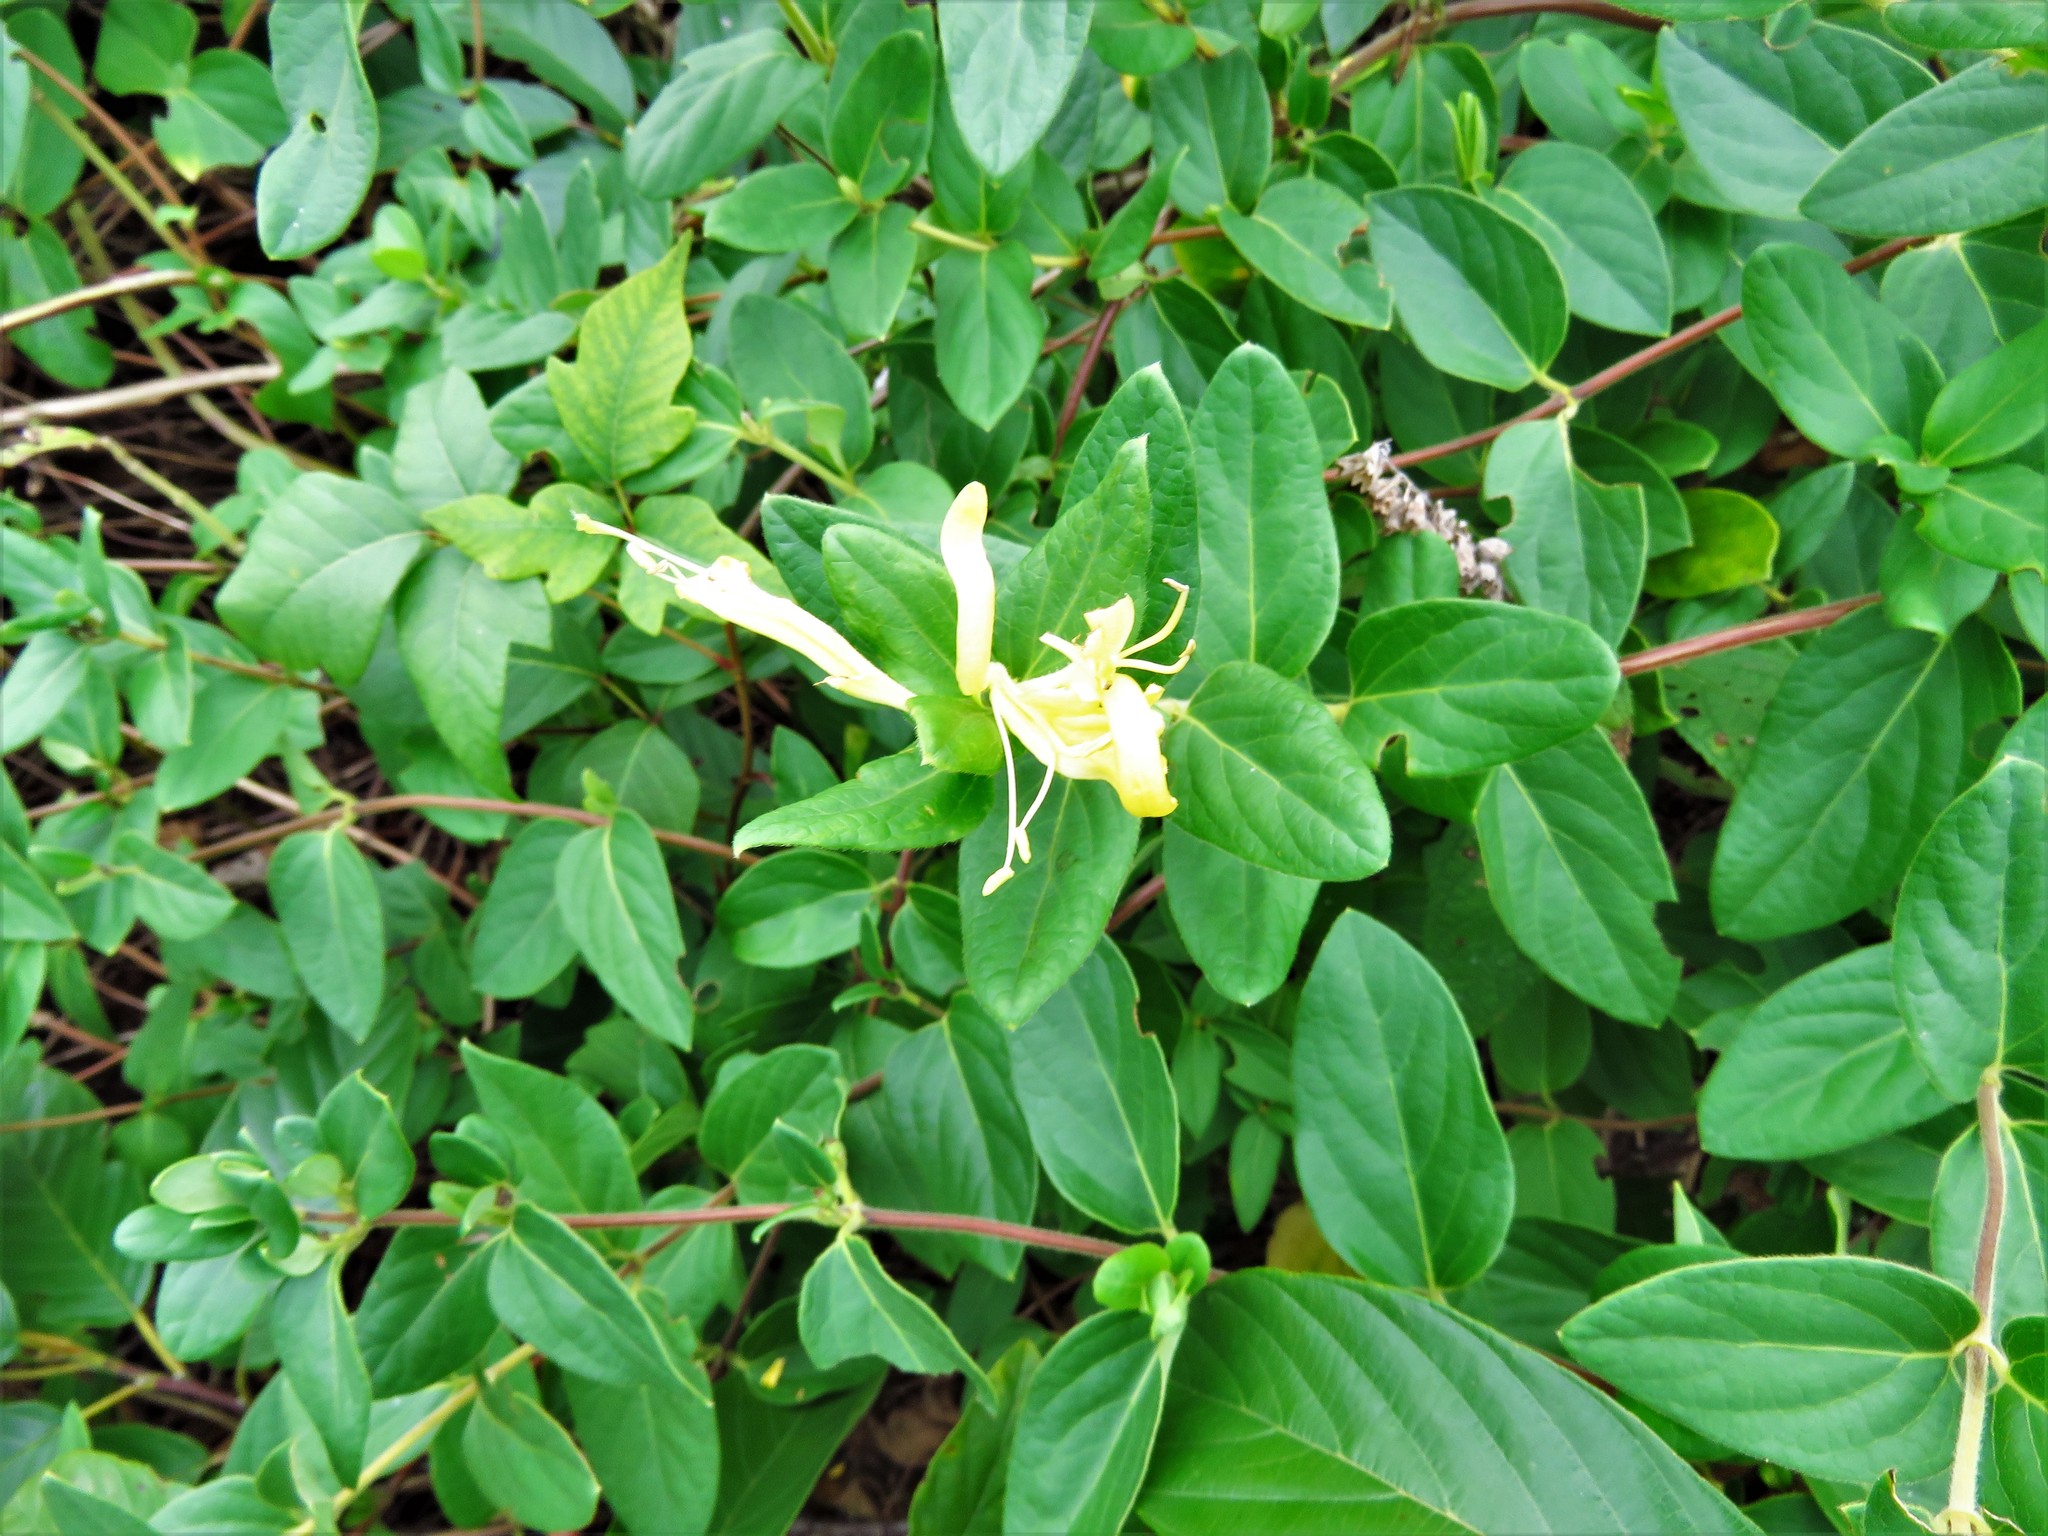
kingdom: Plantae
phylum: Tracheophyta
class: Magnoliopsida
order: Dipsacales
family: Caprifoliaceae
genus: Lonicera
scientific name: Lonicera japonica
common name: Japanese honeysuckle
